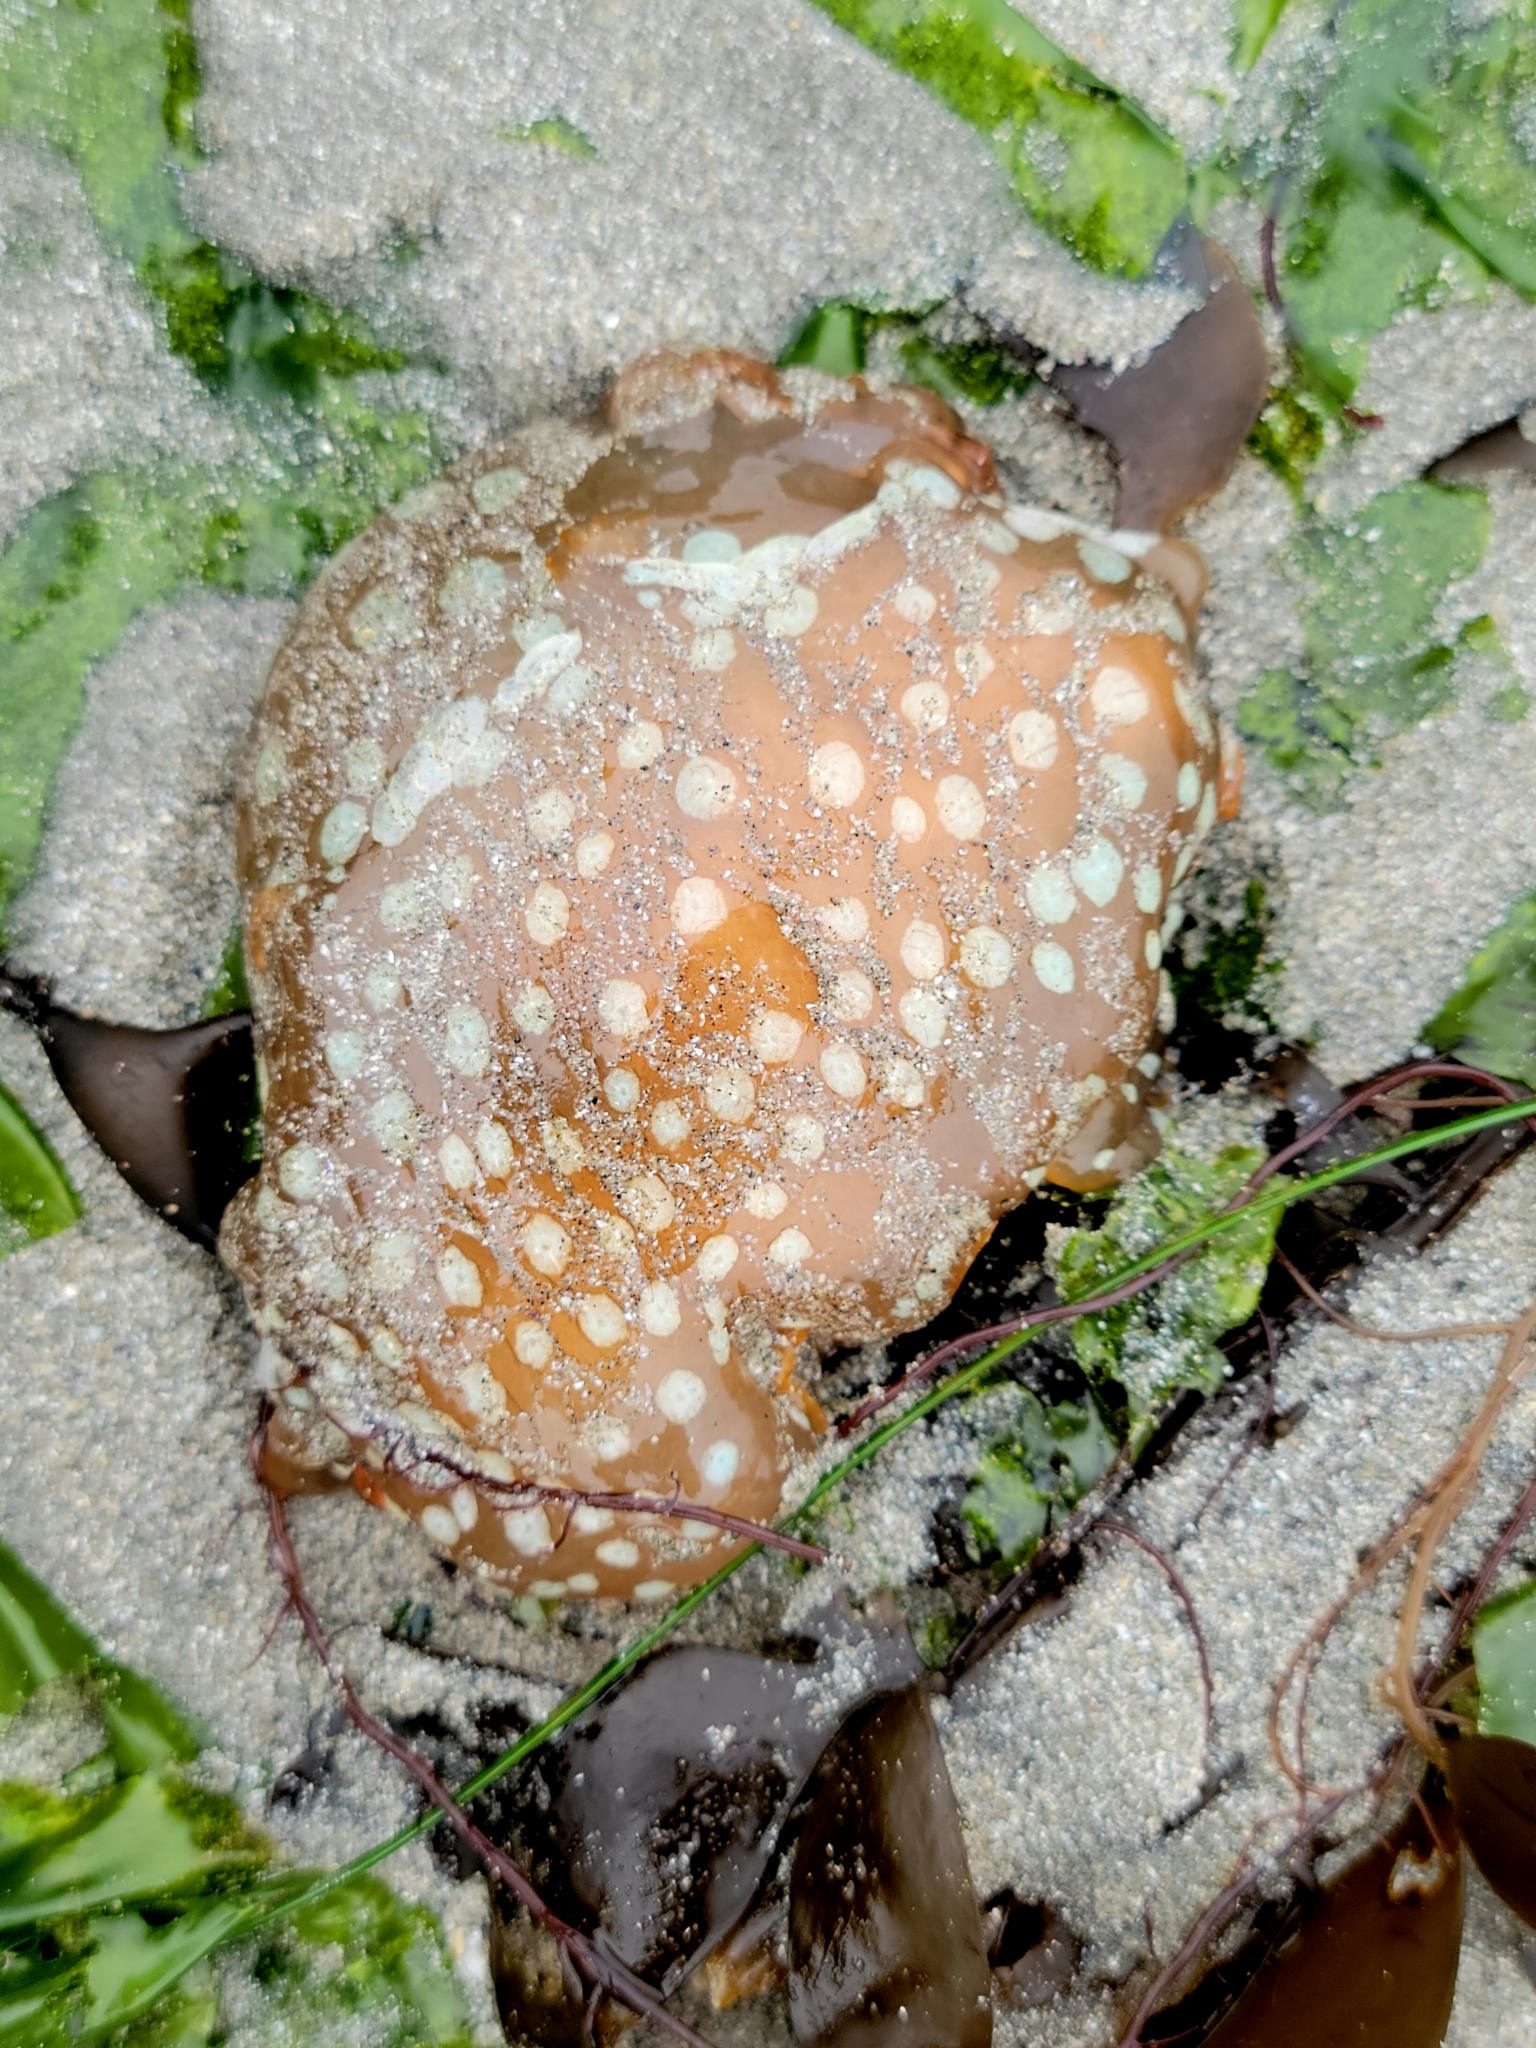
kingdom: Animalia
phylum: Mollusca
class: Gastropoda
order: Nudibranchia
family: Polyceridae
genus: Triopha
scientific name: Triopha maculata
